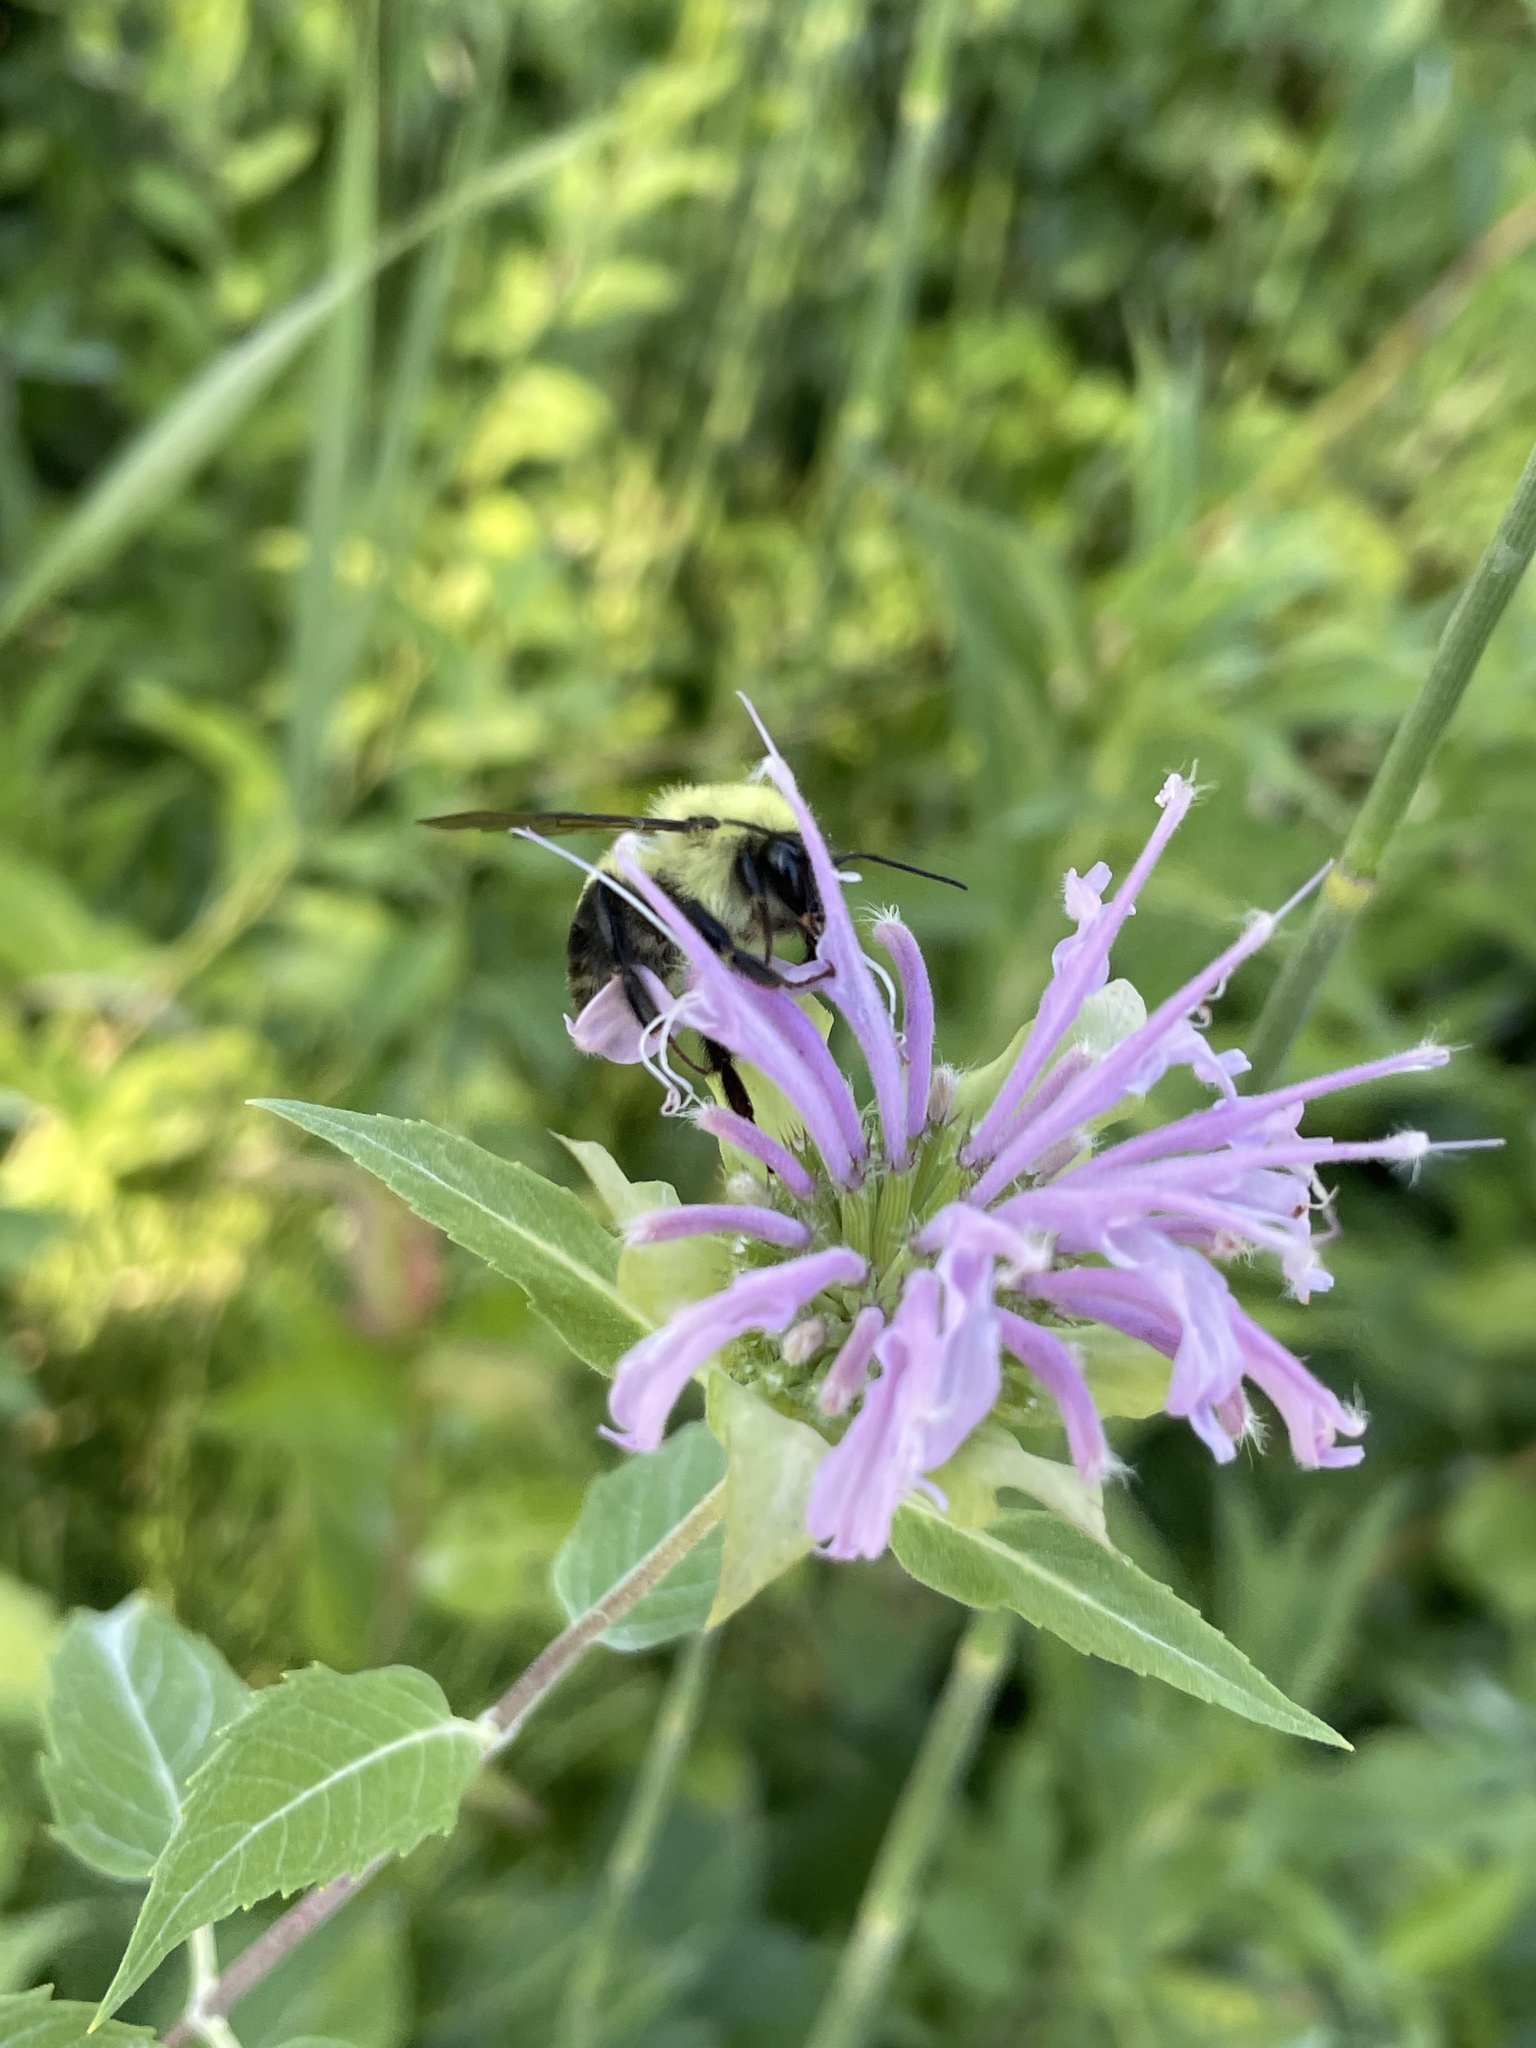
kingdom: Animalia
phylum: Arthropoda
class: Insecta
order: Hymenoptera
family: Apidae
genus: Bombus
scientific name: Bombus bimaculatus
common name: Two-spotted bumble bee
